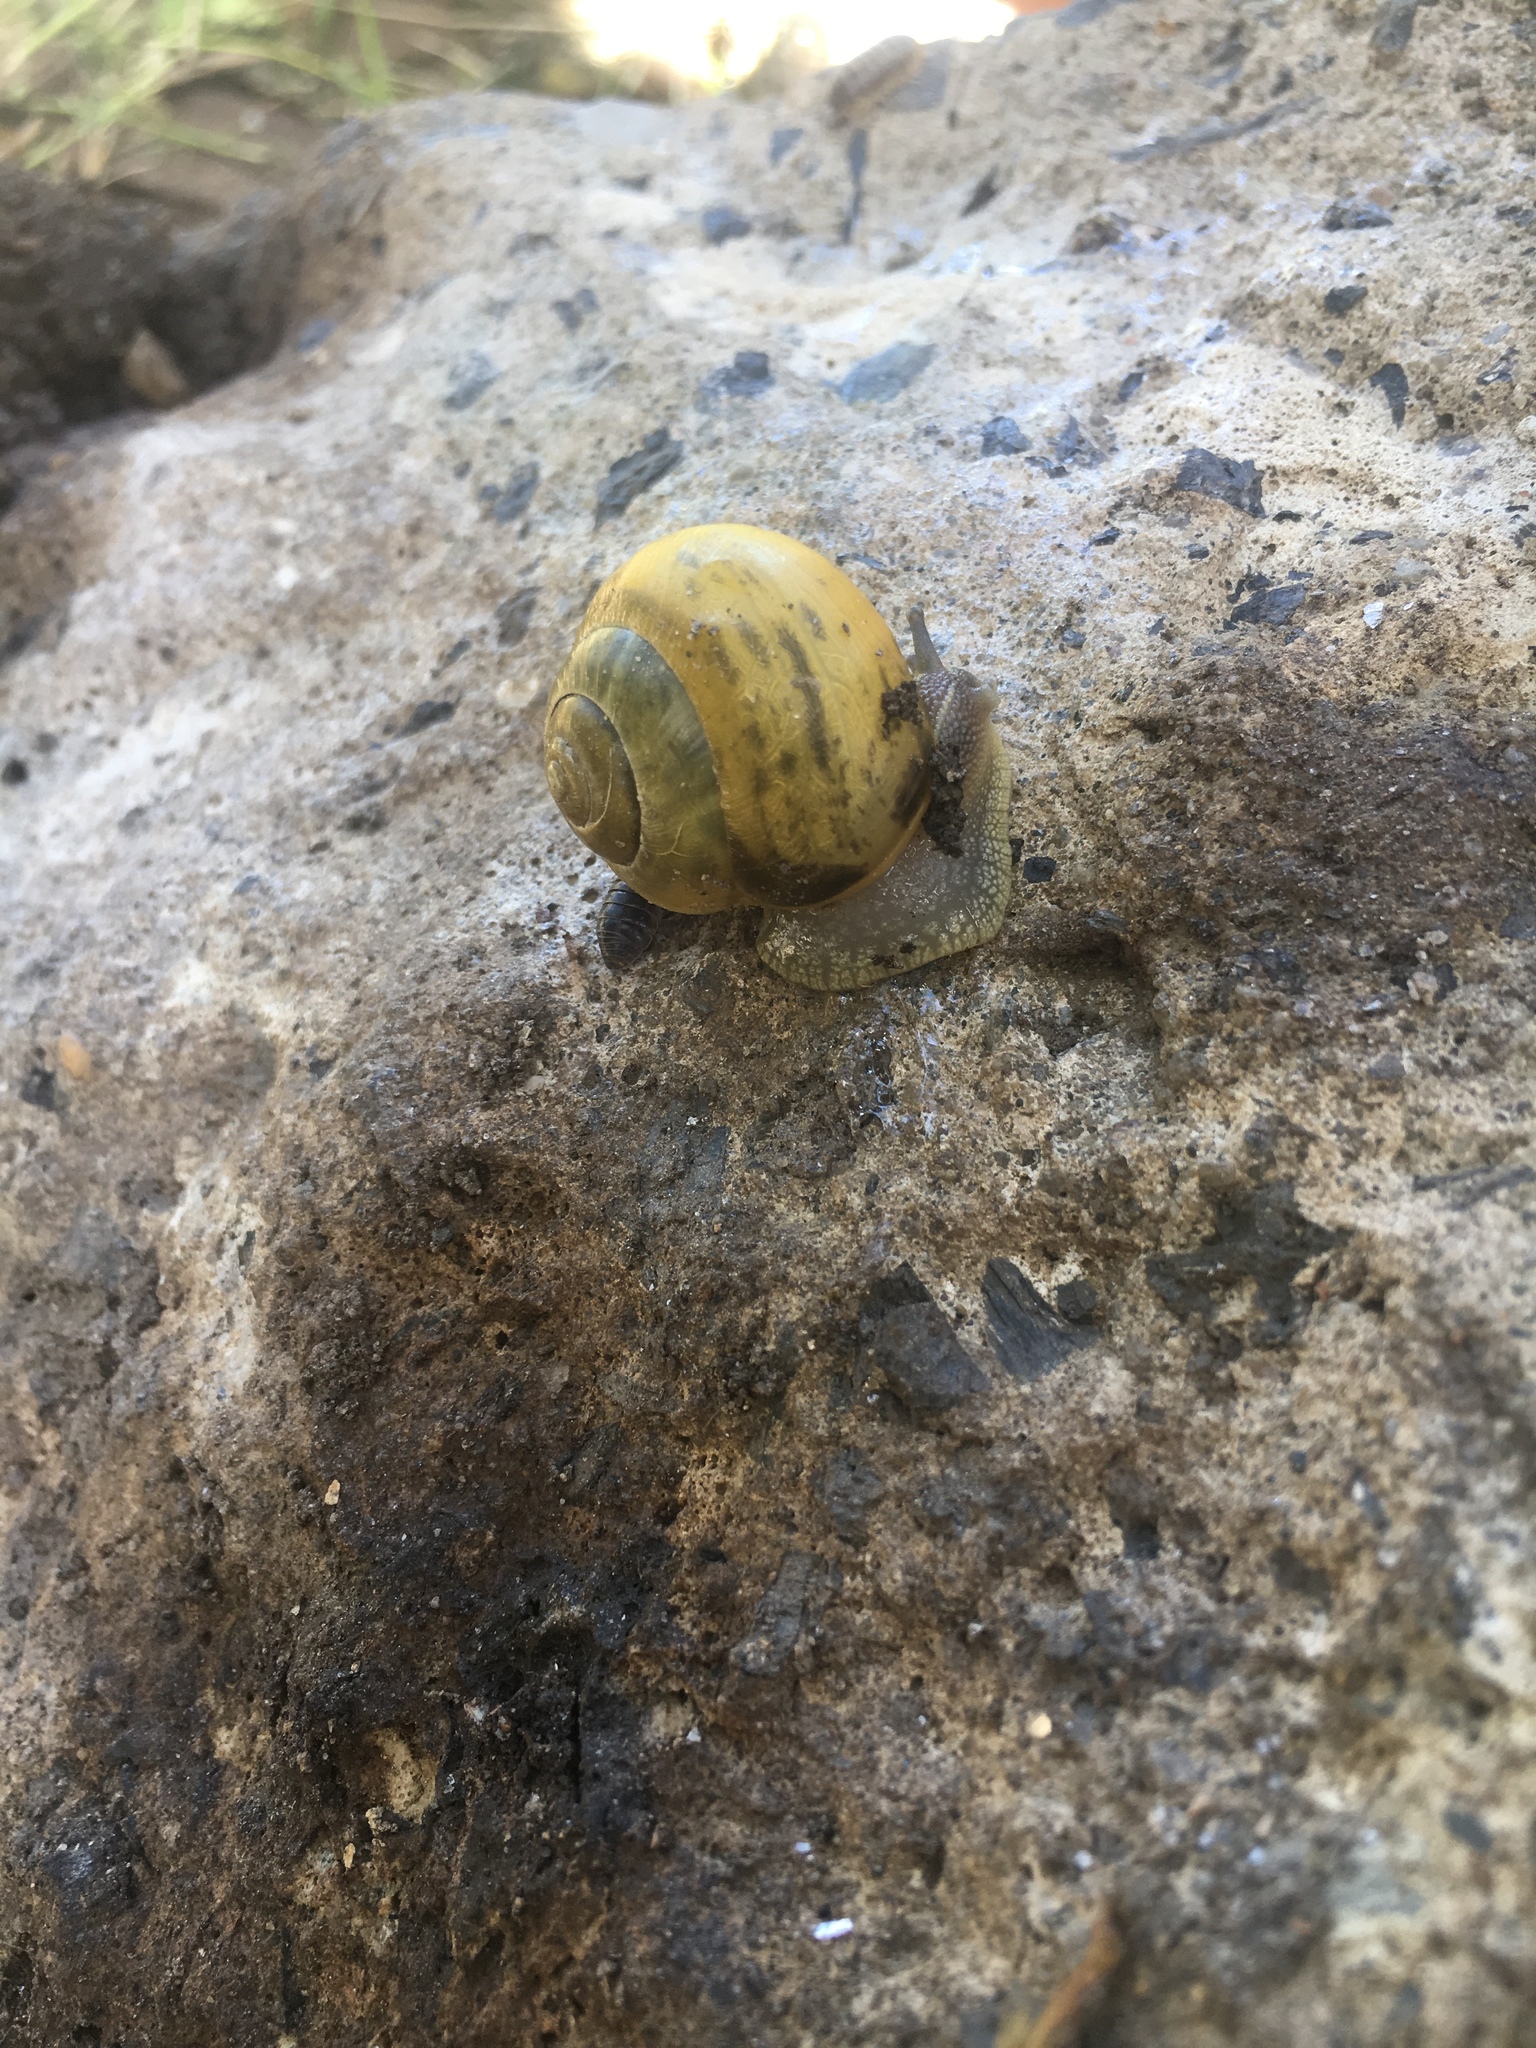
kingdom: Animalia
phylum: Mollusca
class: Gastropoda
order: Stylommatophora
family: Helicidae
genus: Cepaea
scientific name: Cepaea nemoralis
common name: Grovesnail
